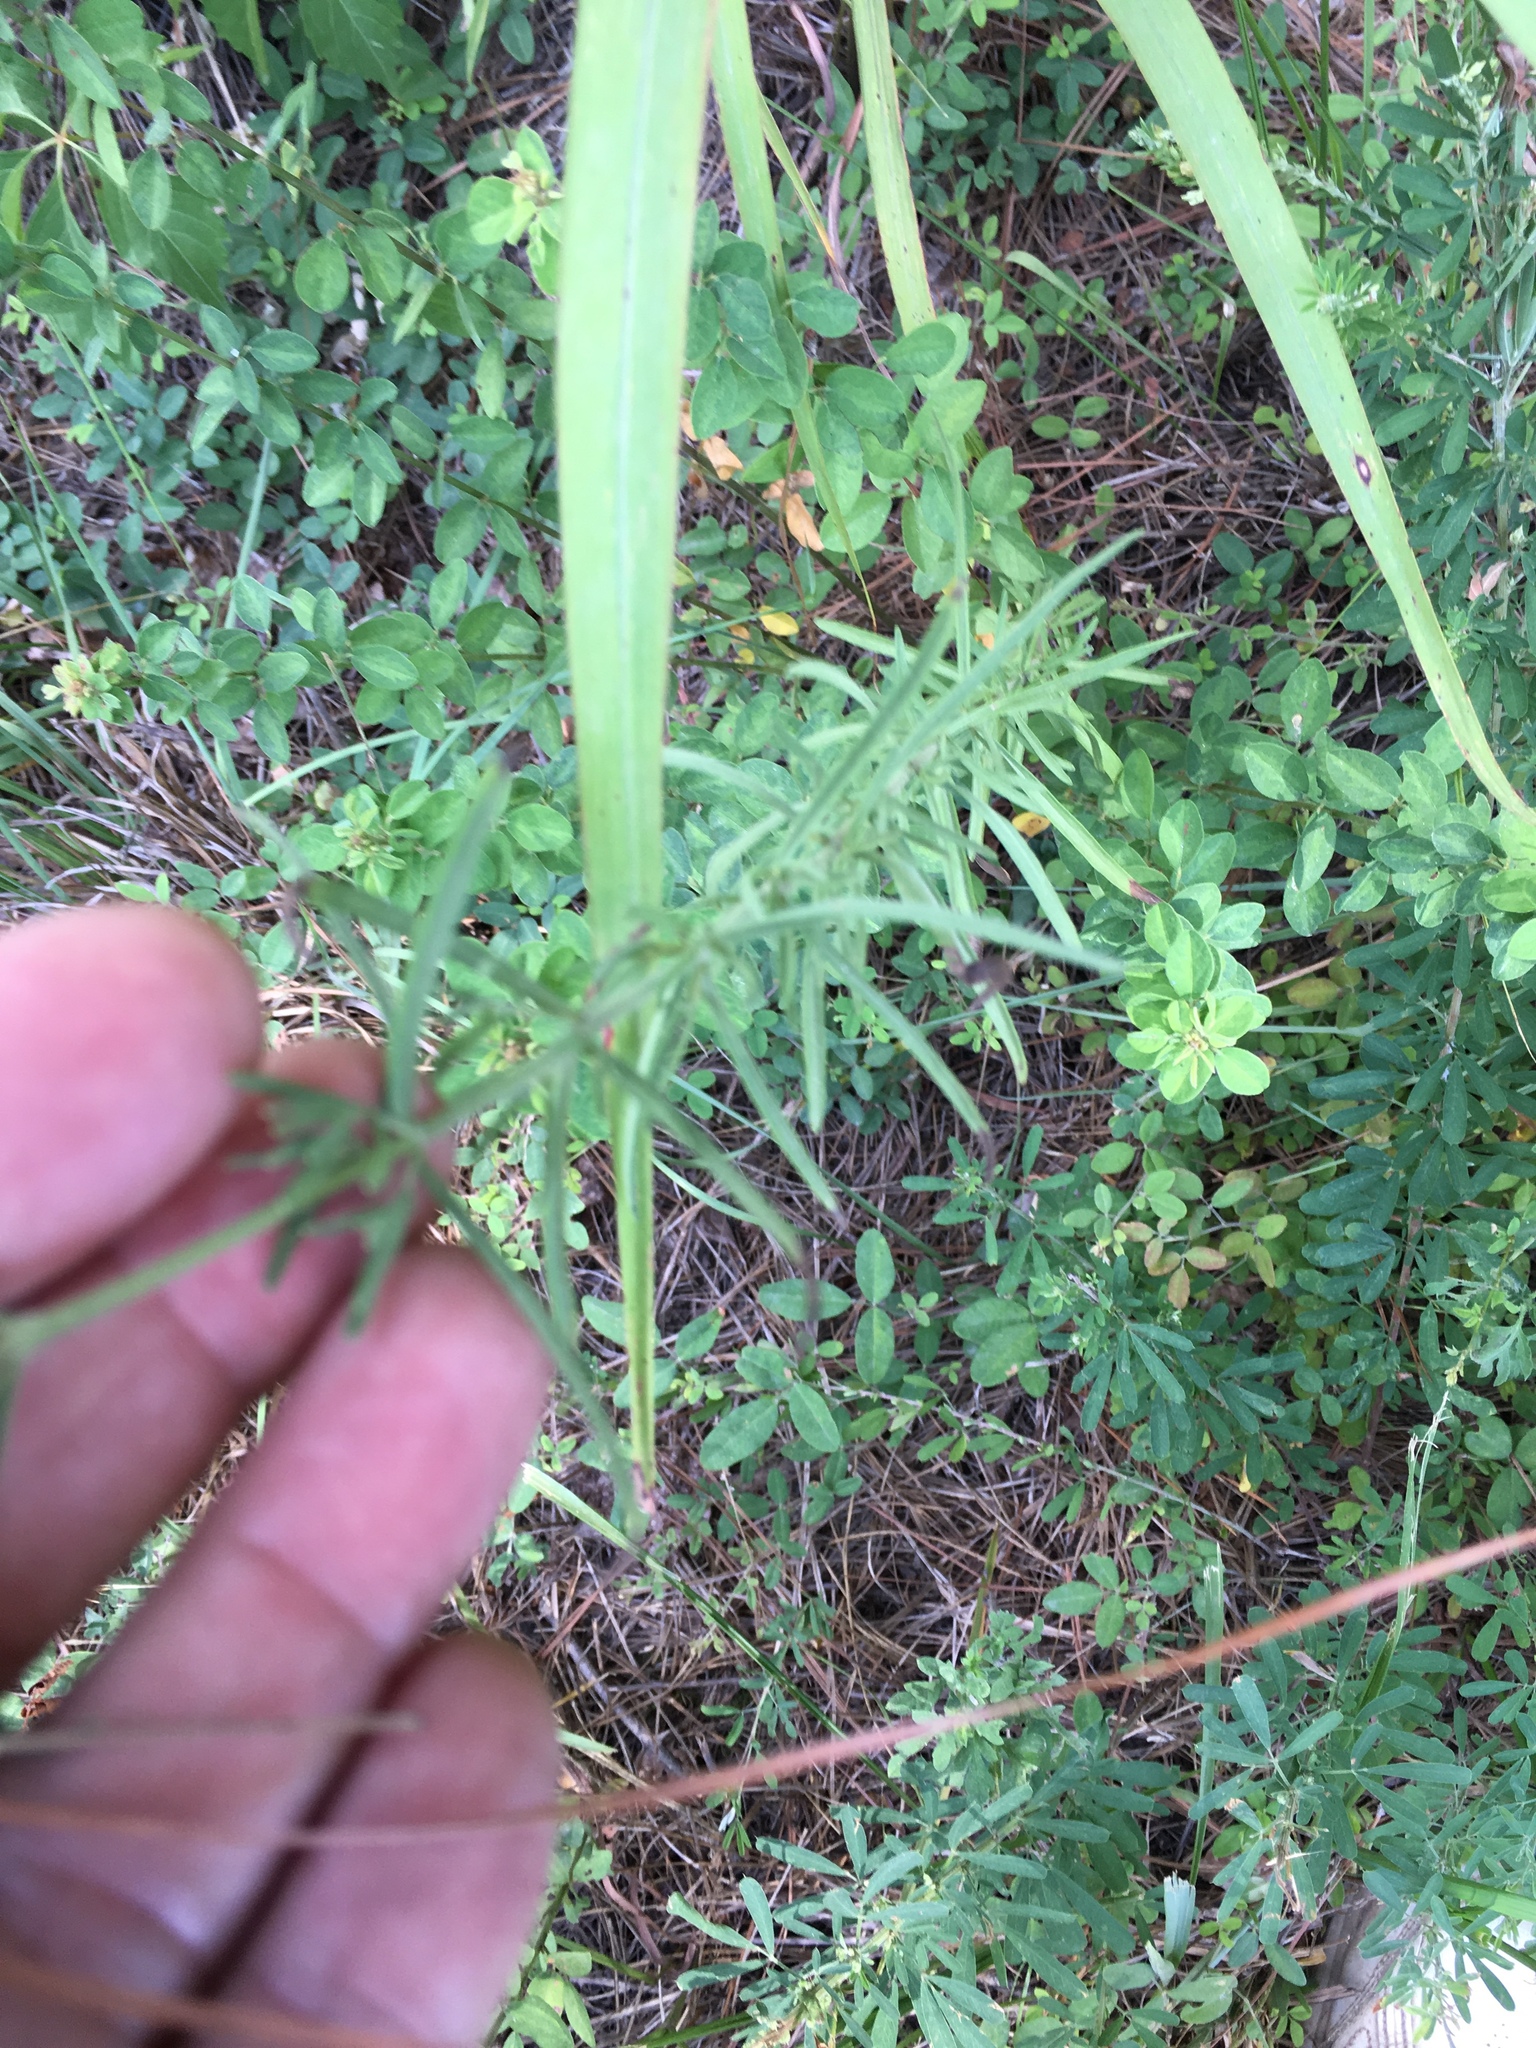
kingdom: Plantae
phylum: Tracheophyta
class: Magnoliopsida
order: Asterales
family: Asteraceae
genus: Eupatorium
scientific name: Eupatorium hyssopifolium
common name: Hyssop-leaf thoroughwort
